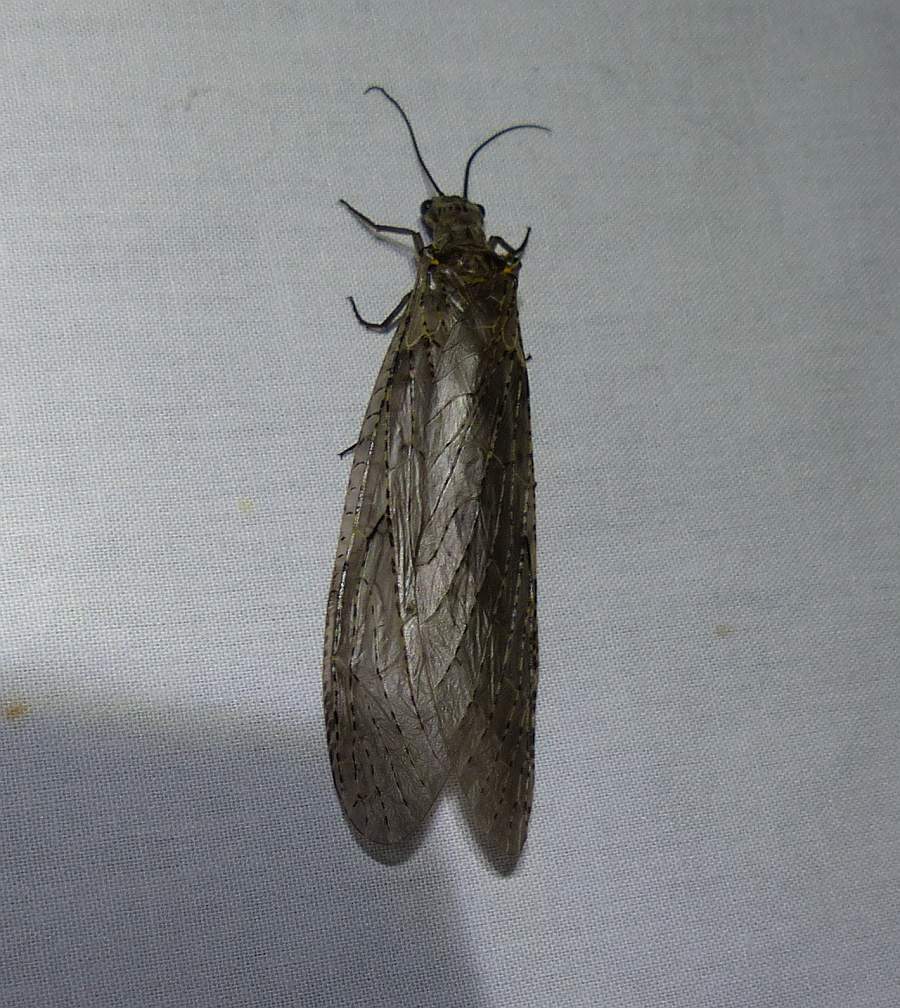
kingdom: Animalia
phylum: Arthropoda
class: Insecta
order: Megaloptera
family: Corydalidae
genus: Chauliodes
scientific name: Chauliodes rastricornis
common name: Spring fishfly
